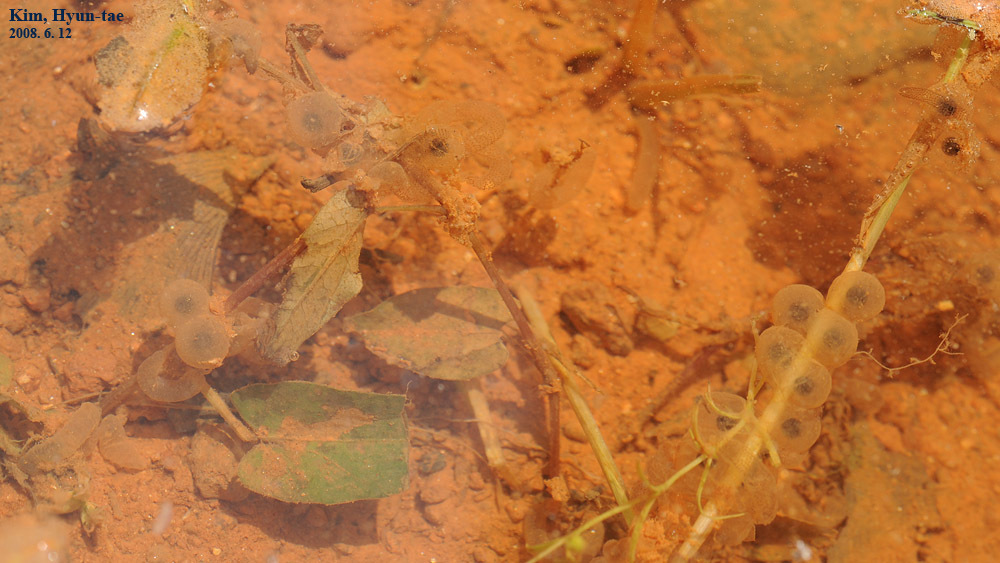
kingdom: Animalia
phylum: Chordata
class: Amphibia
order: Anura
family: Bombinatoridae
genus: Bombina
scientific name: Bombina orientalis
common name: Oriental firebelly toad
